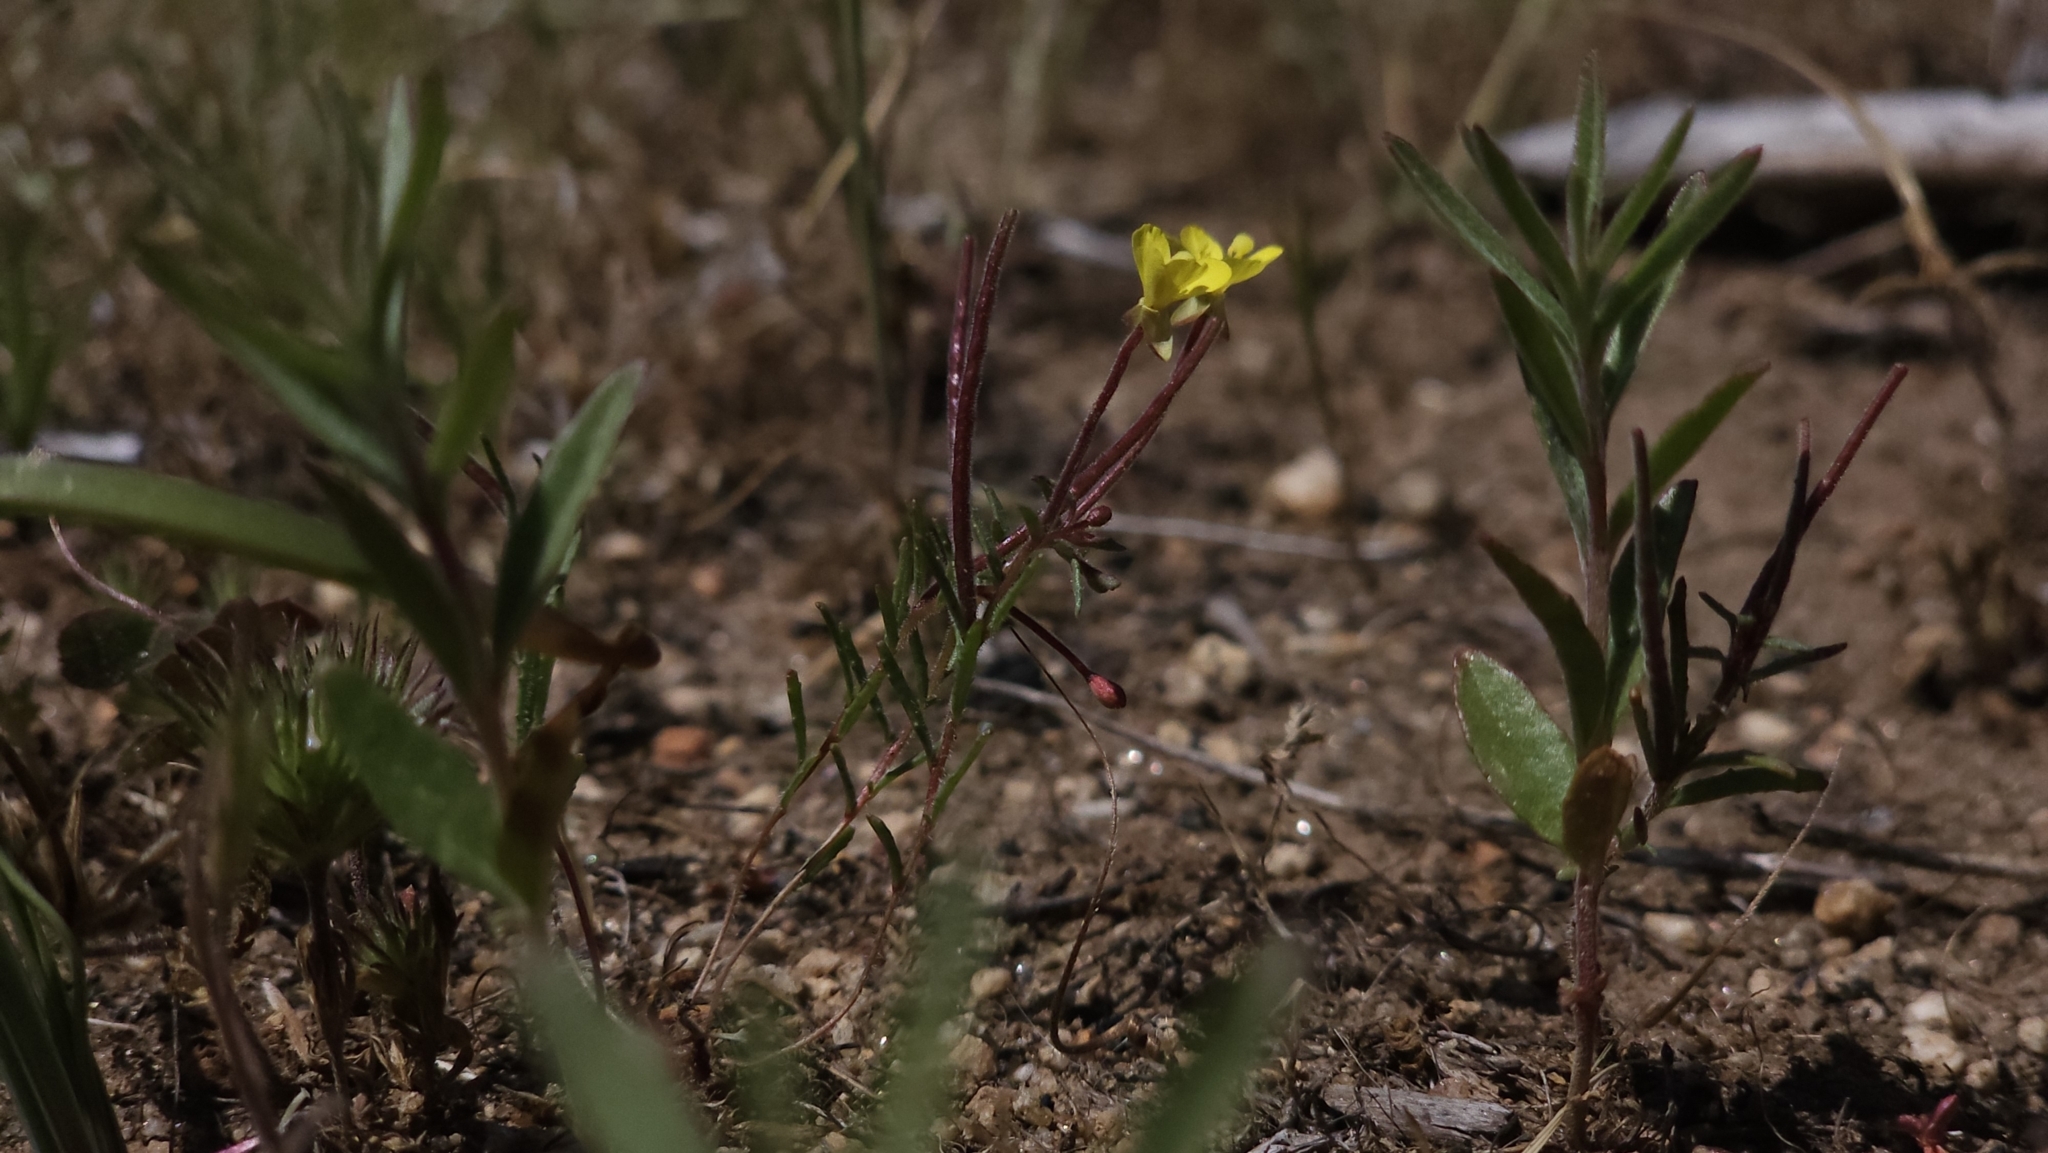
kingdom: Plantae
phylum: Tracheophyta
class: Magnoliopsida
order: Myrtales
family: Onagraceae
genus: Camissonia
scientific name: Camissonia sierrae
